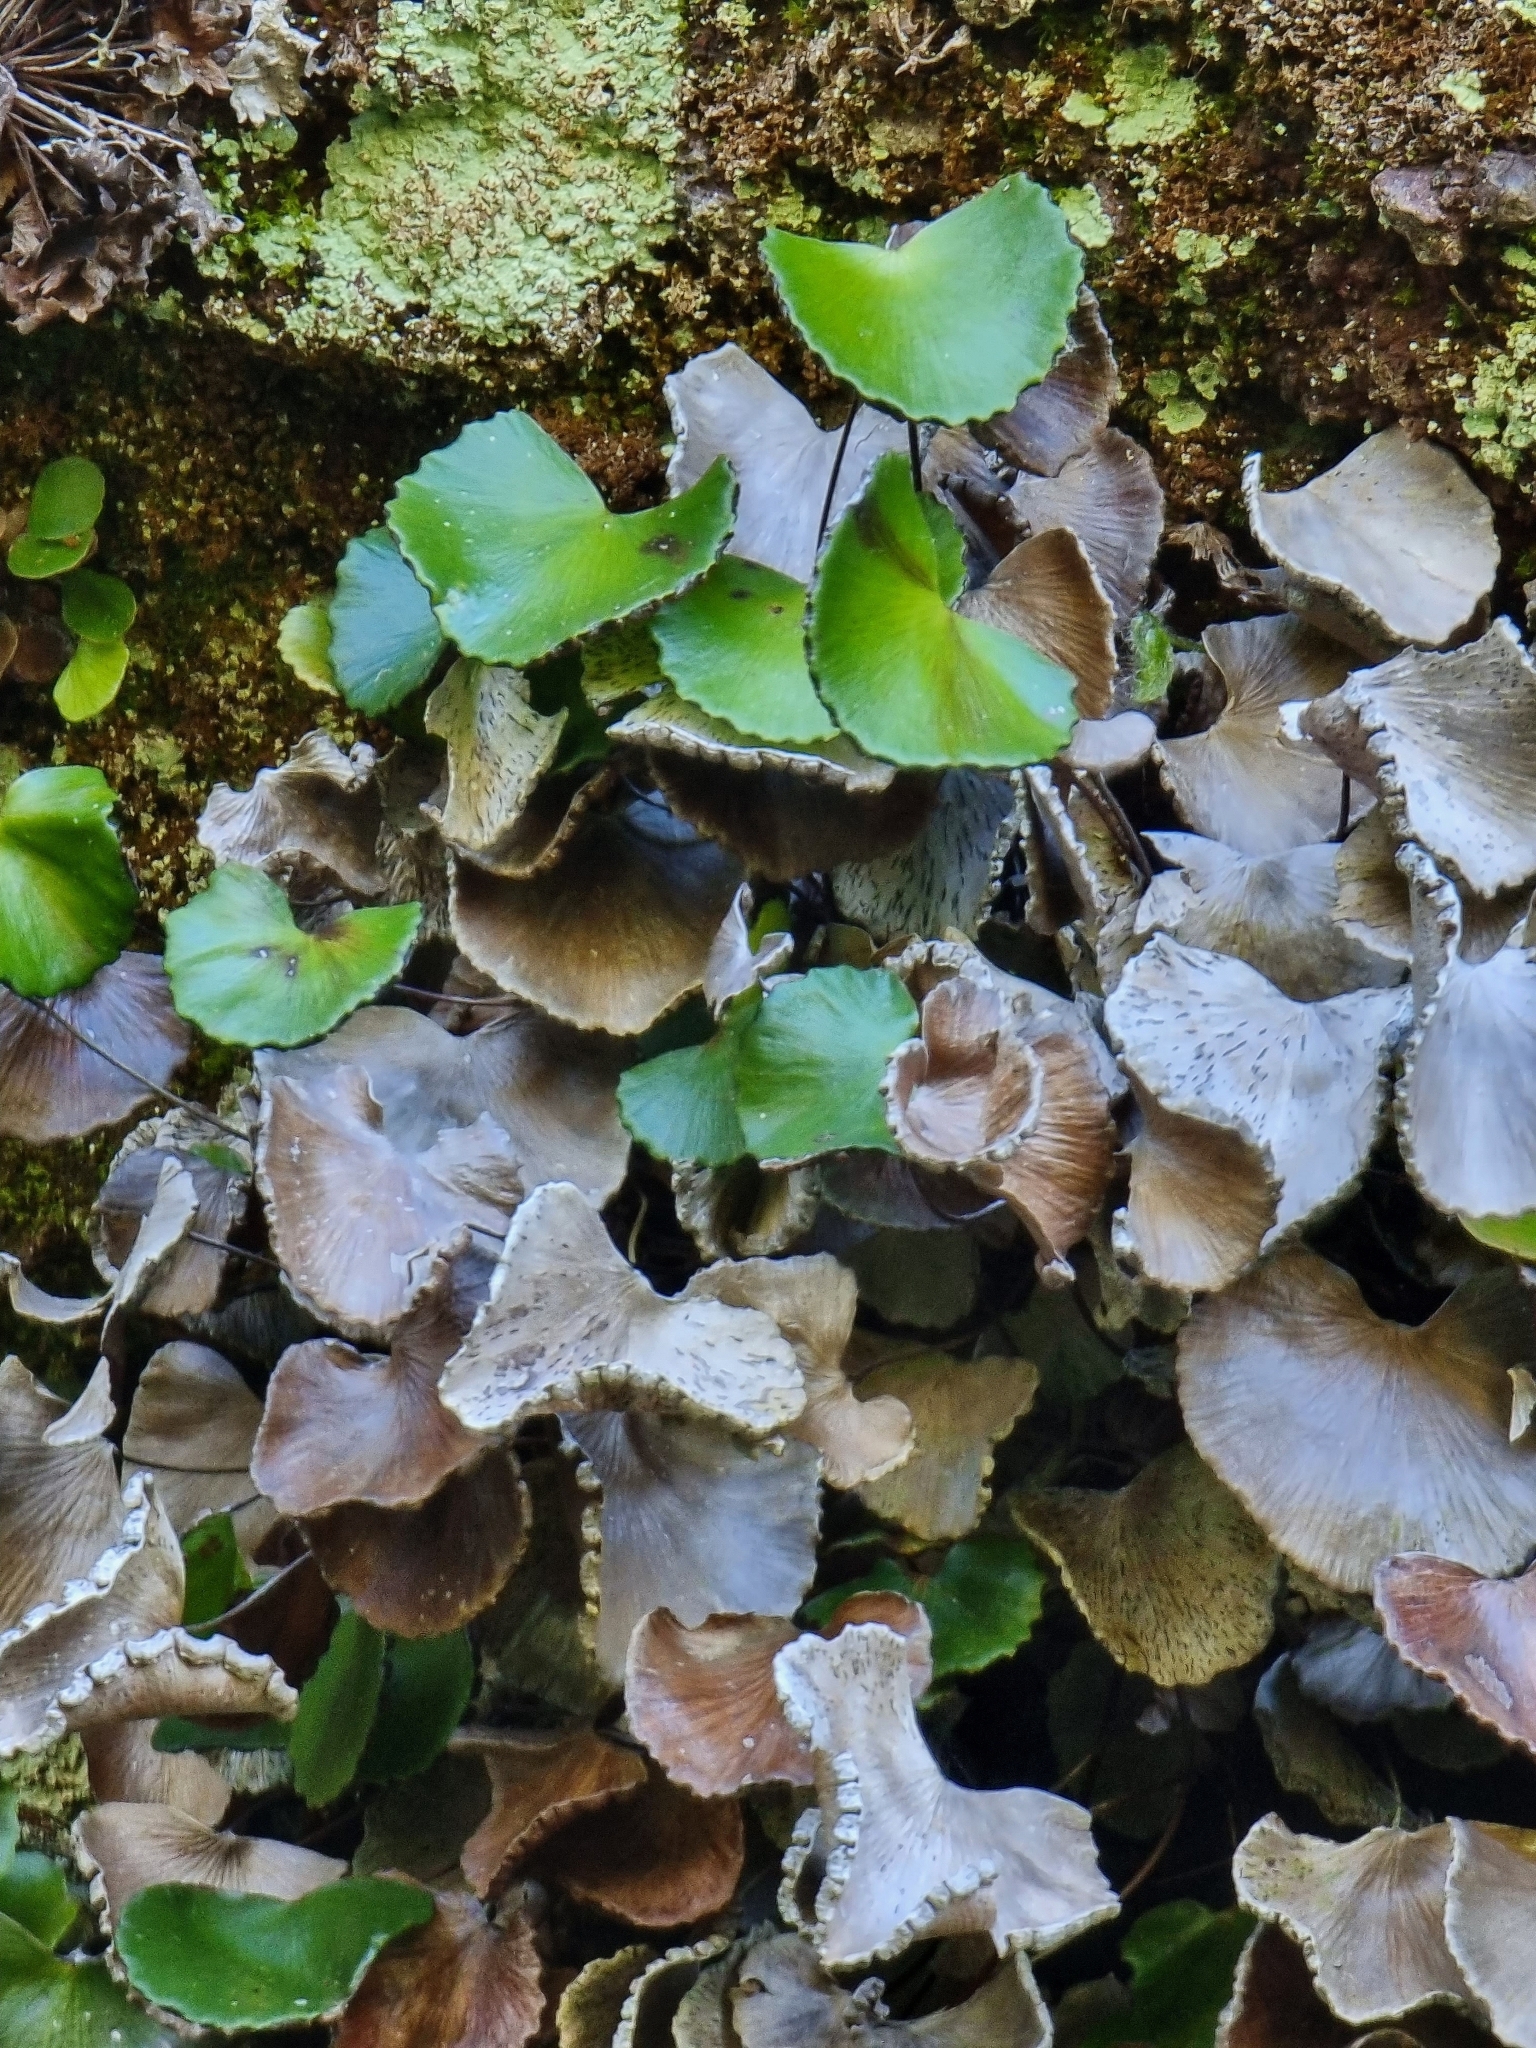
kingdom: Plantae
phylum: Tracheophyta
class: Polypodiopsida
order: Polypodiales
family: Pteridaceae
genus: Adiantum
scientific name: Adiantum reniforme
